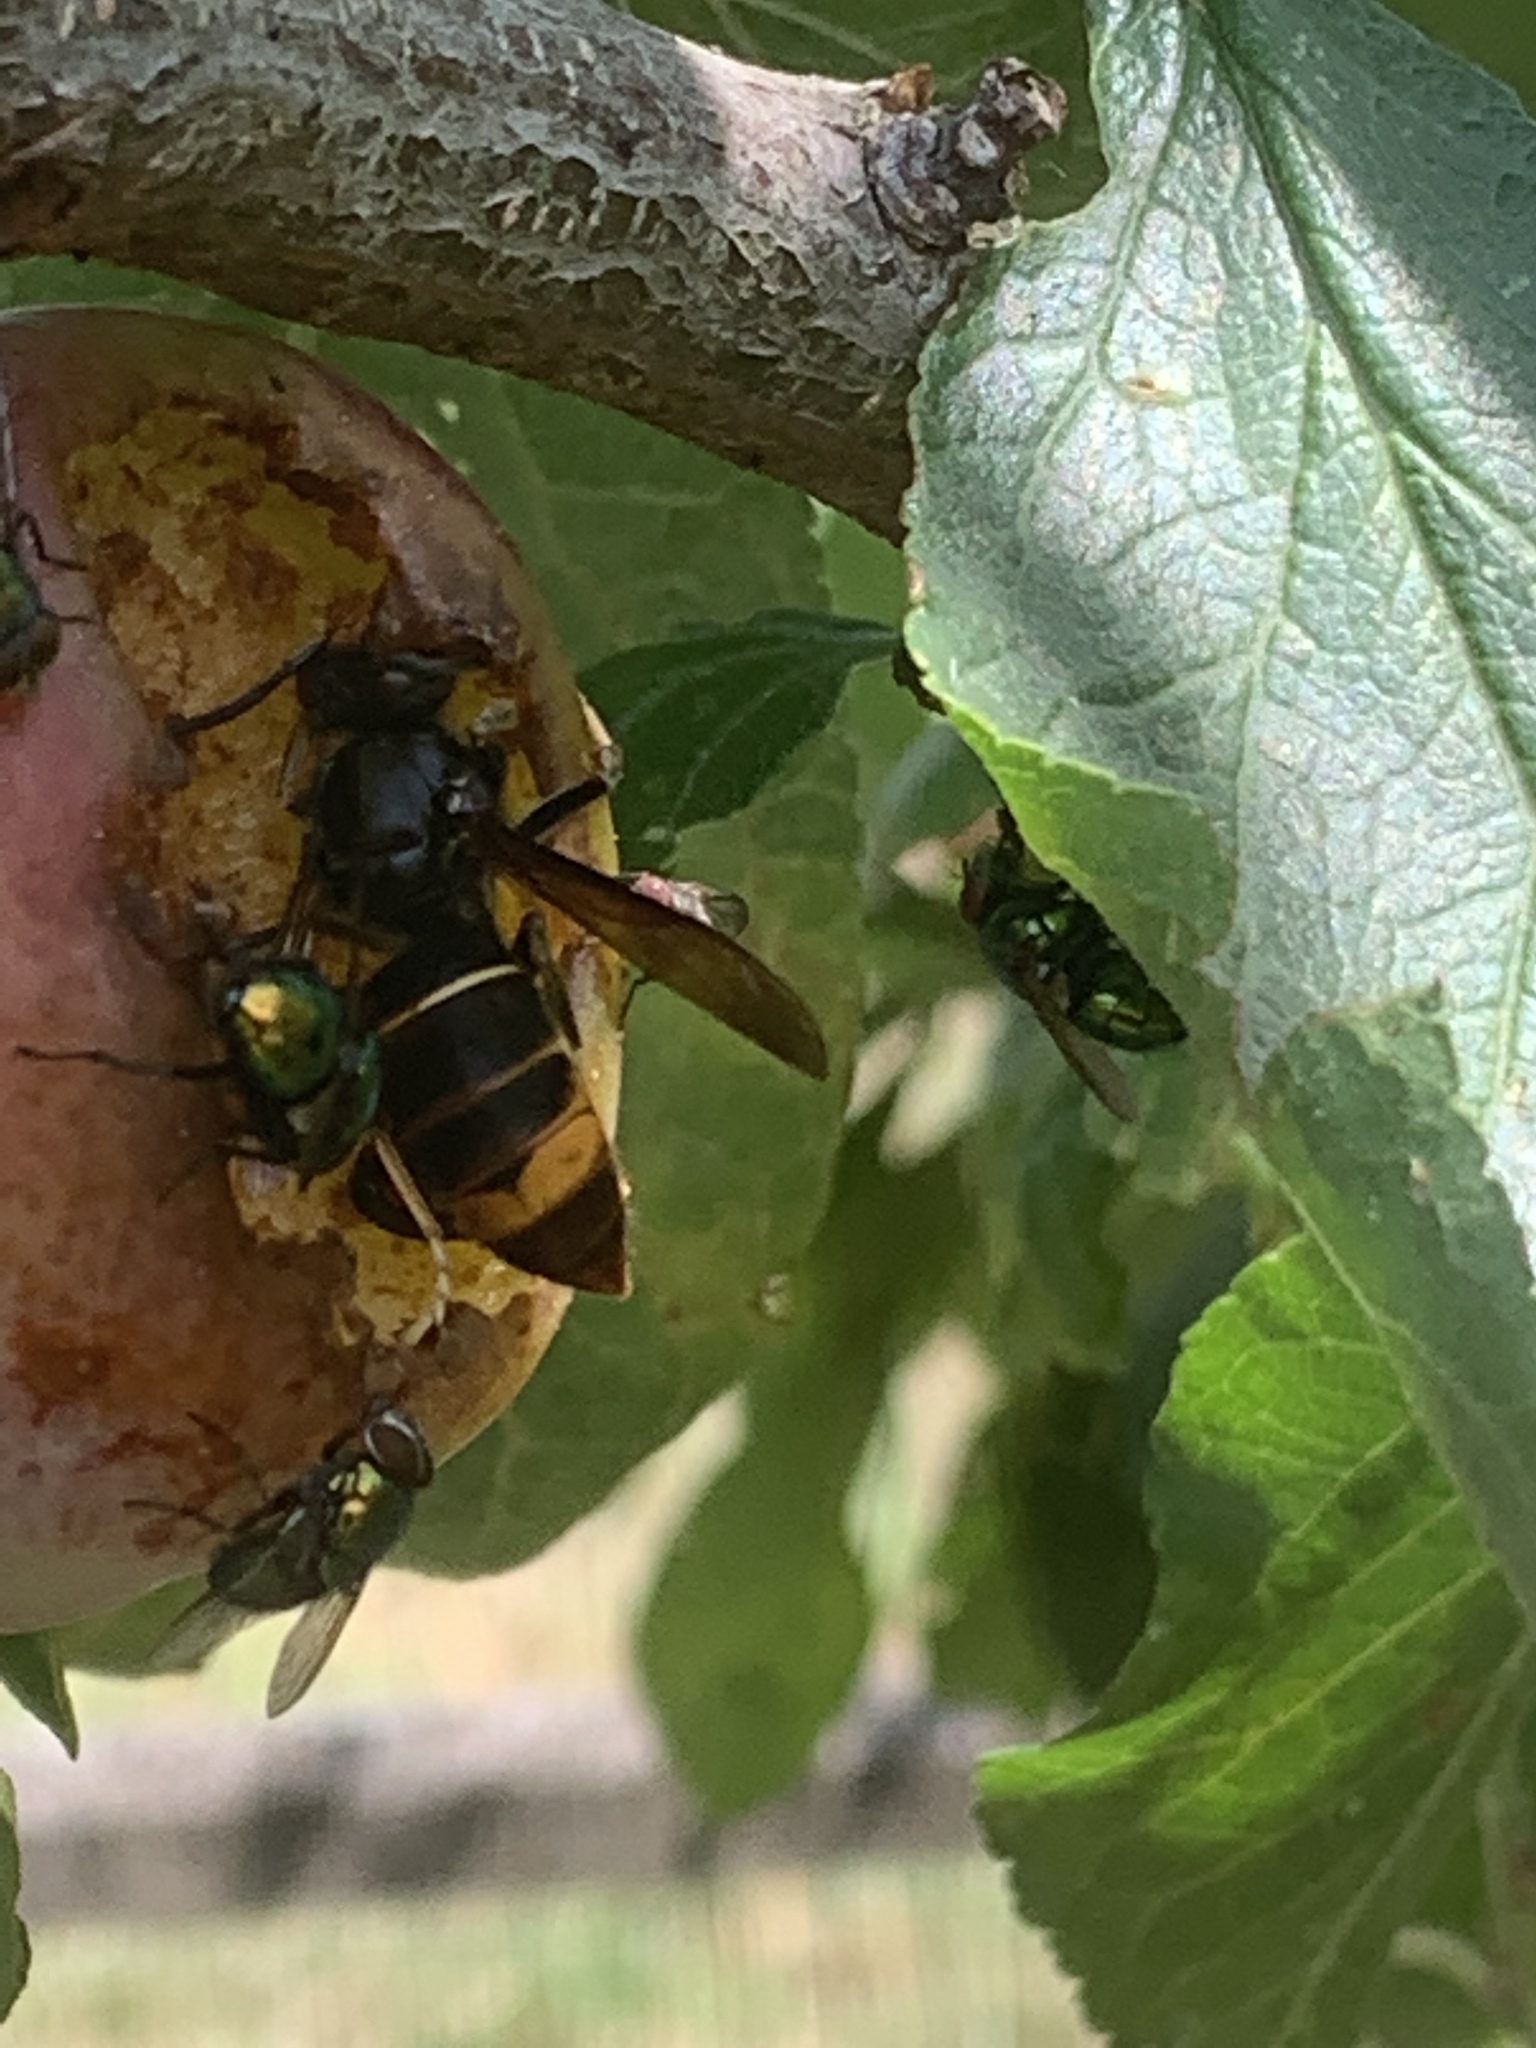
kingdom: Animalia
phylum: Arthropoda
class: Insecta
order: Hymenoptera
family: Vespidae
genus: Vespa
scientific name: Vespa velutina
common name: Asian hornet
